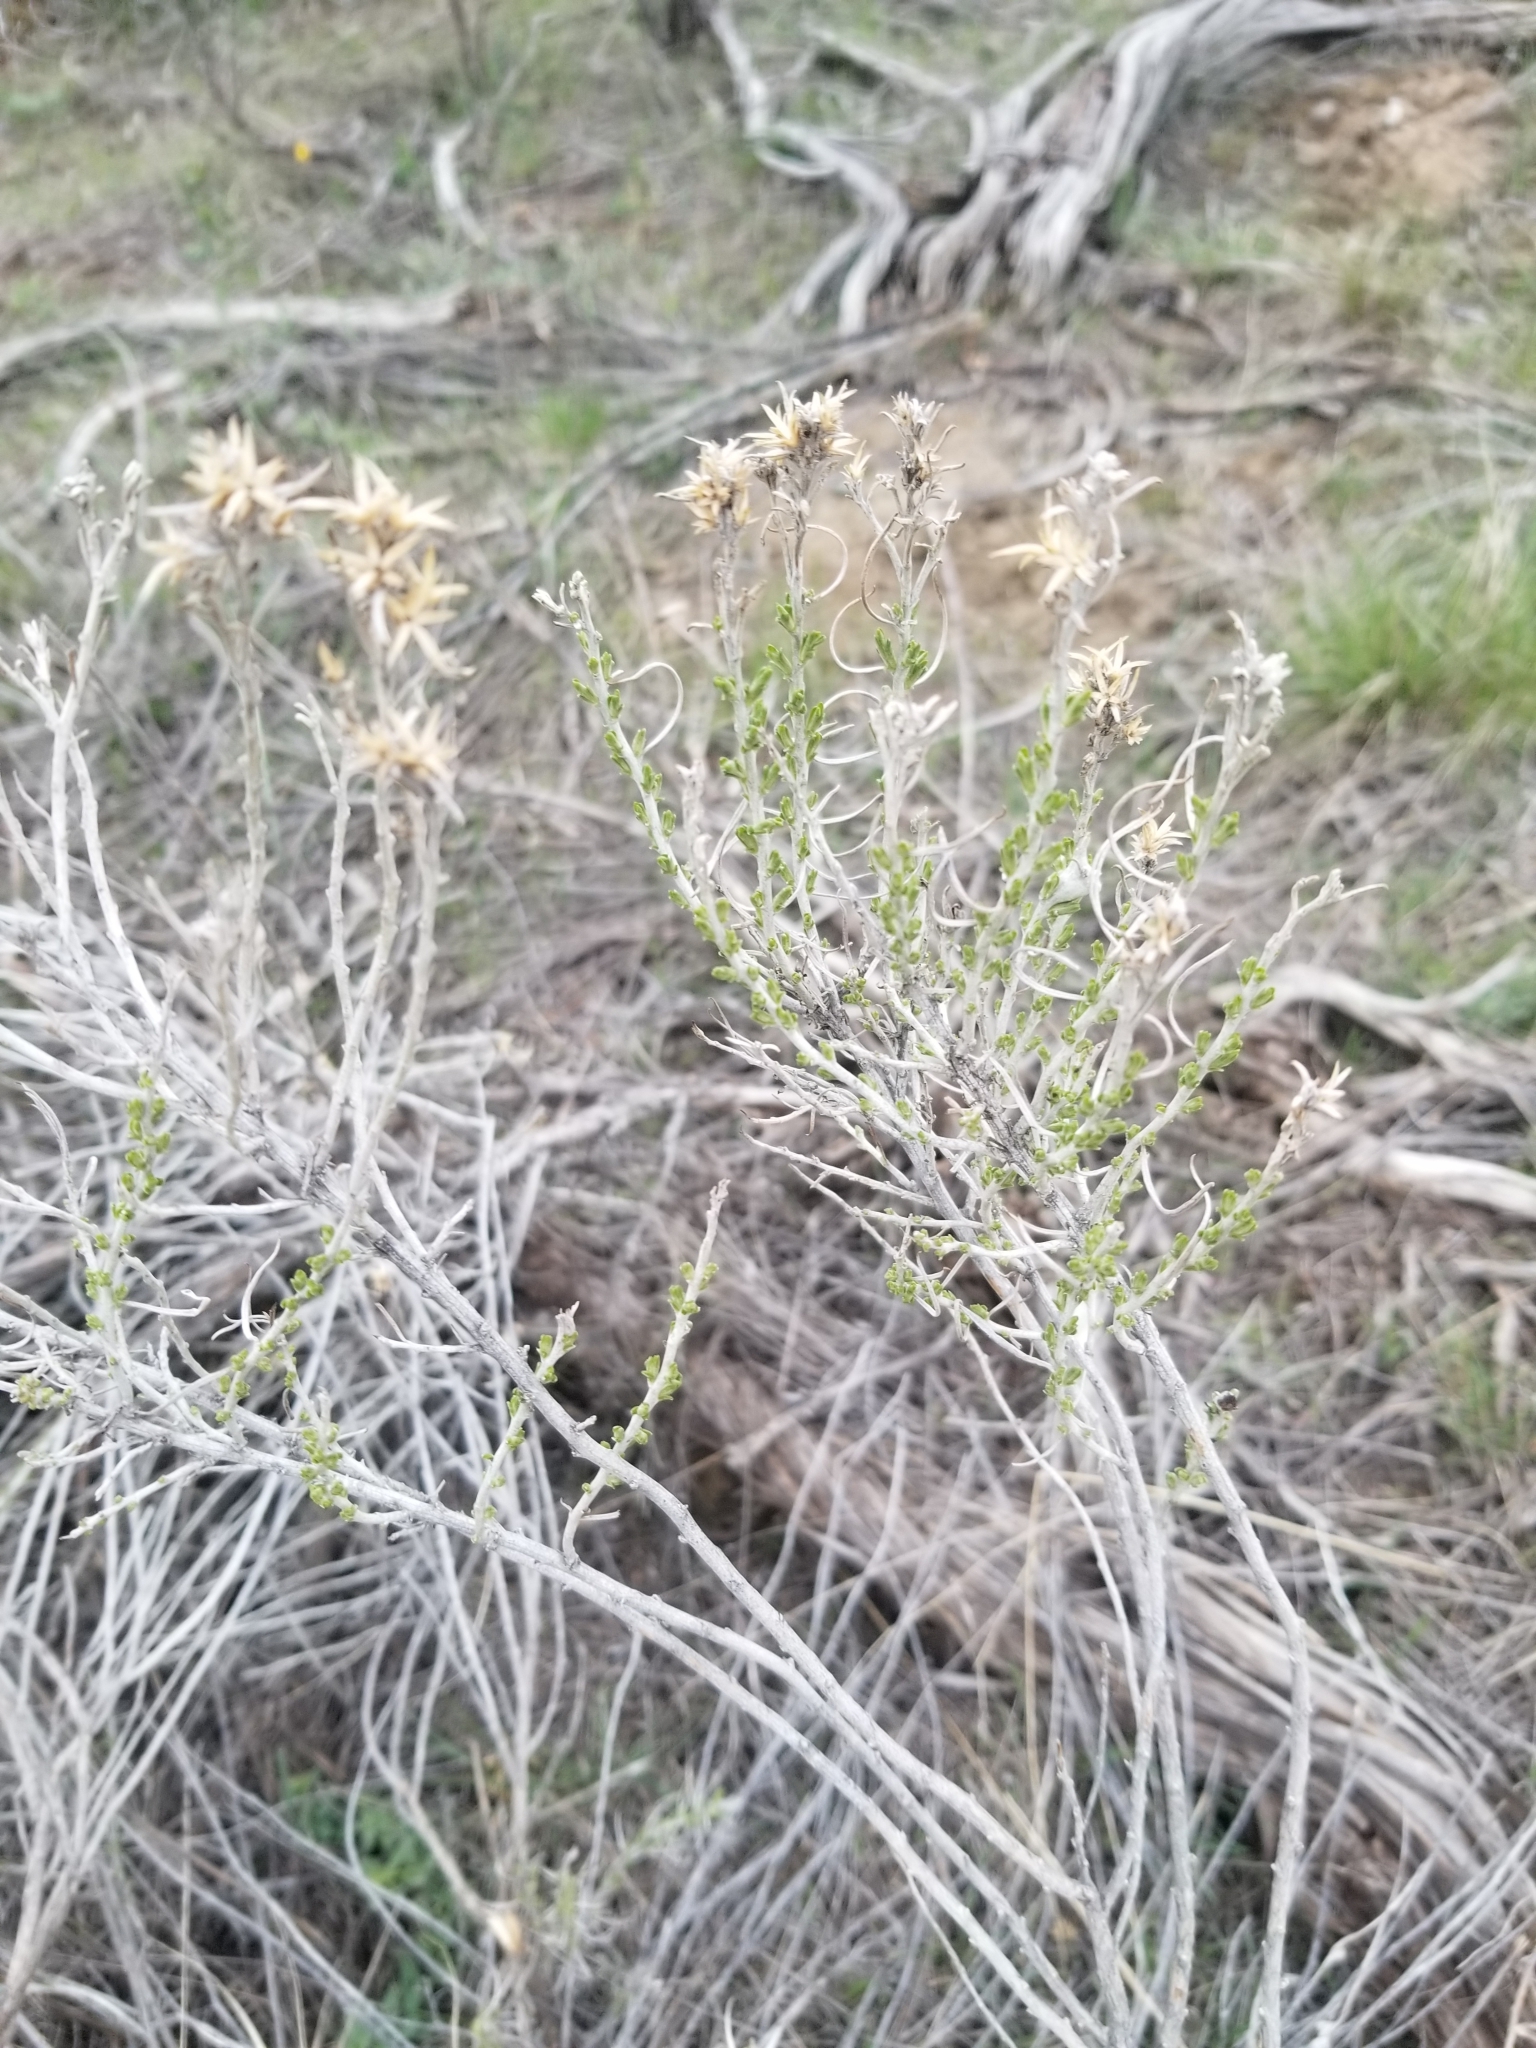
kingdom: Plantae
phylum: Tracheophyta
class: Magnoliopsida
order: Asterales
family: Asteraceae
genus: Ericameria
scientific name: Ericameria nauseosa
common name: Rubber rabbitbrush
